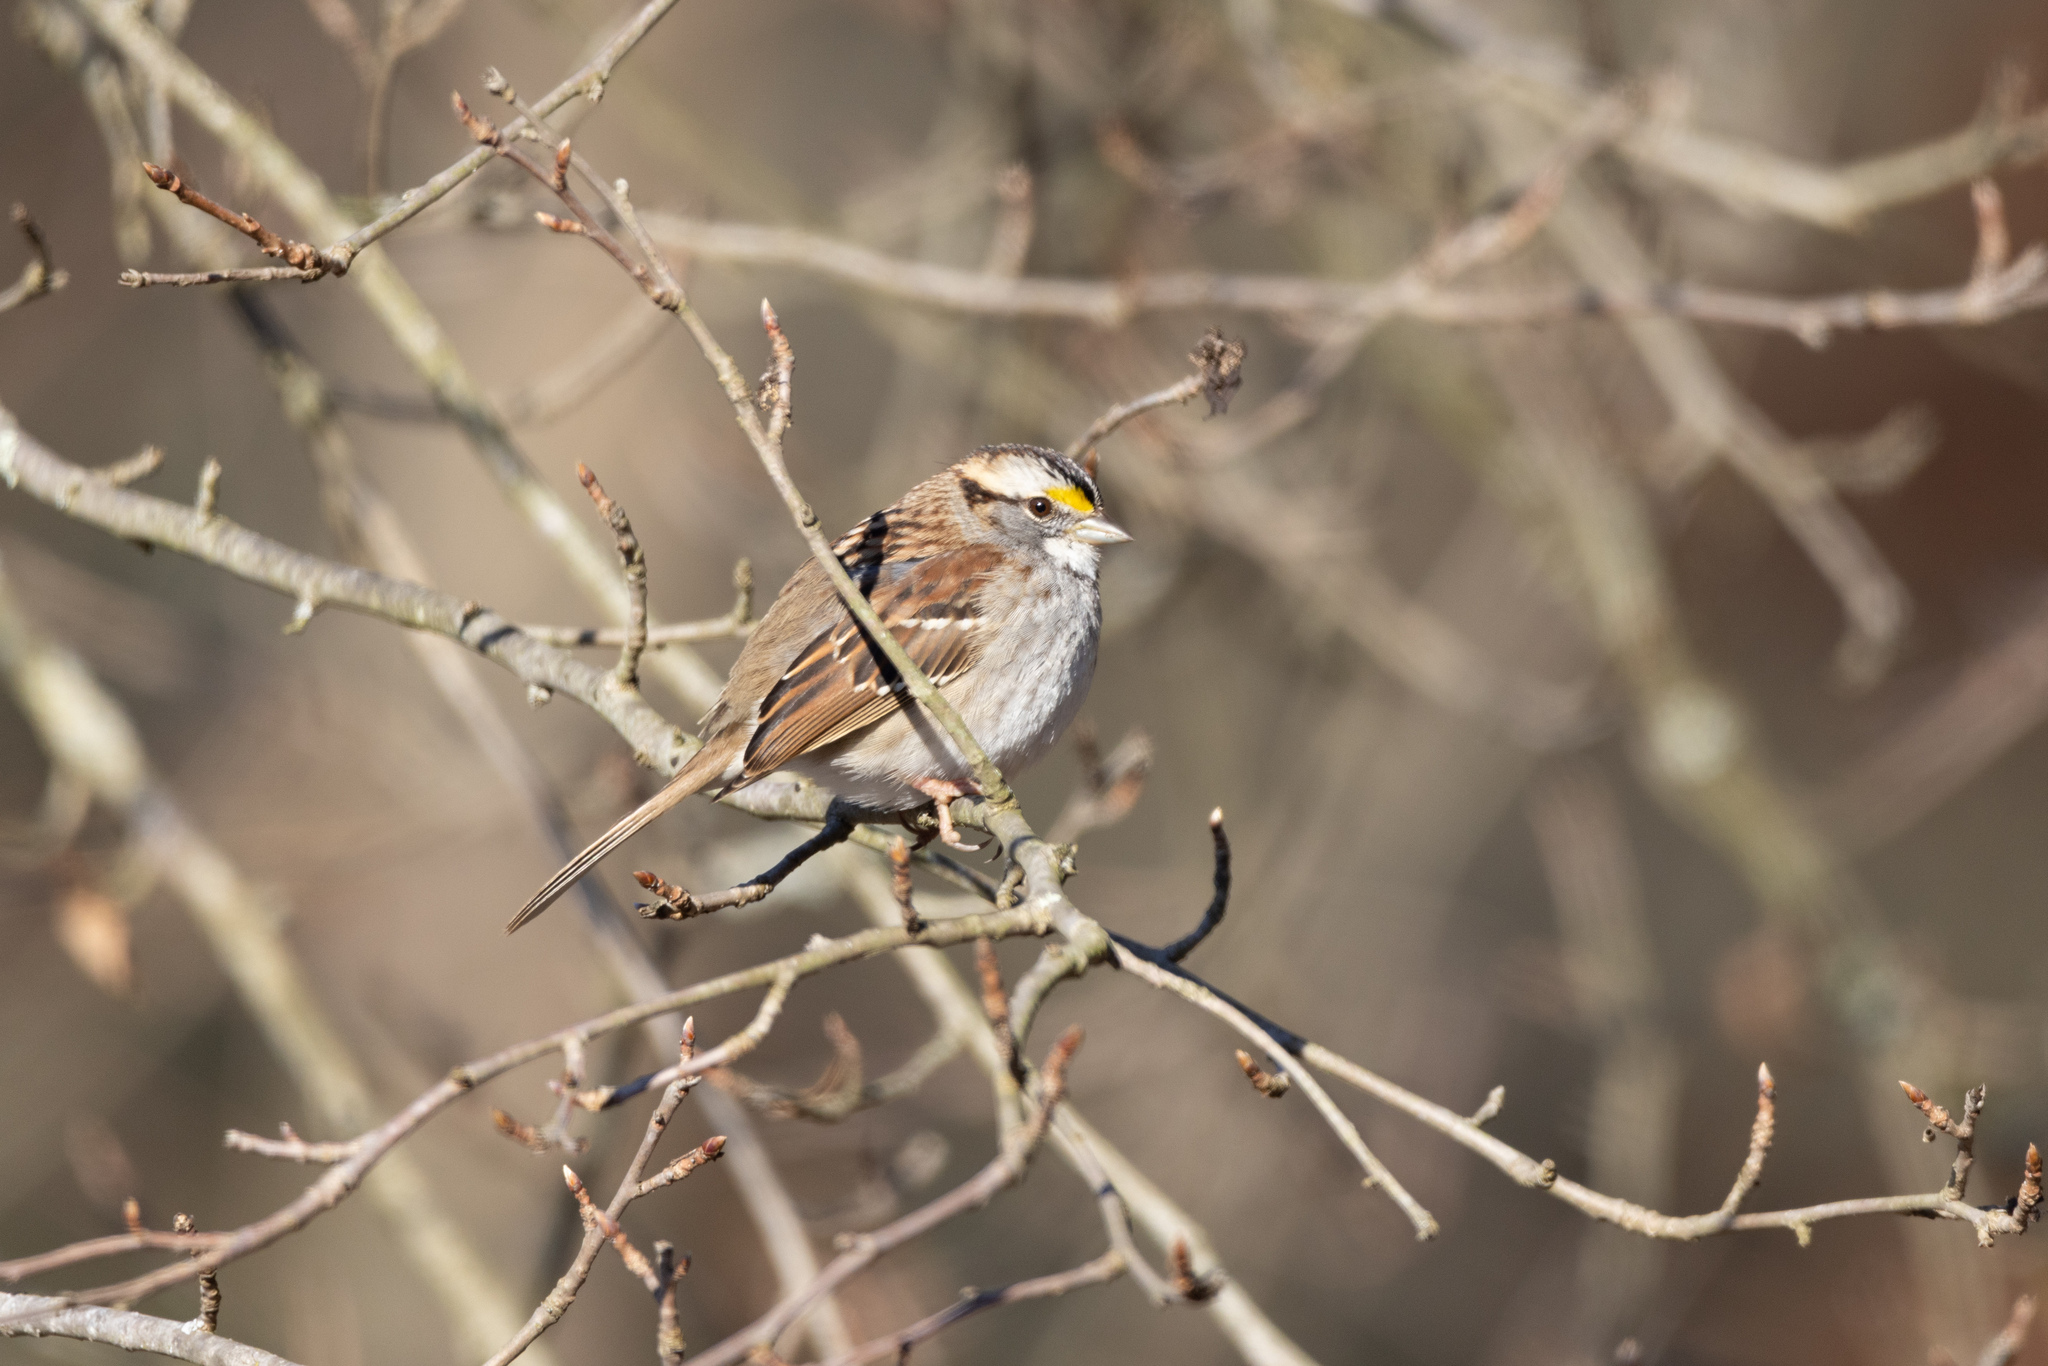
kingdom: Animalia
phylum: Chordata
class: Aves
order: Passeriformes
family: Passerellidae
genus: Zonotrichia
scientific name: Zonotrichia albicollis
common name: White-throated sparrow
